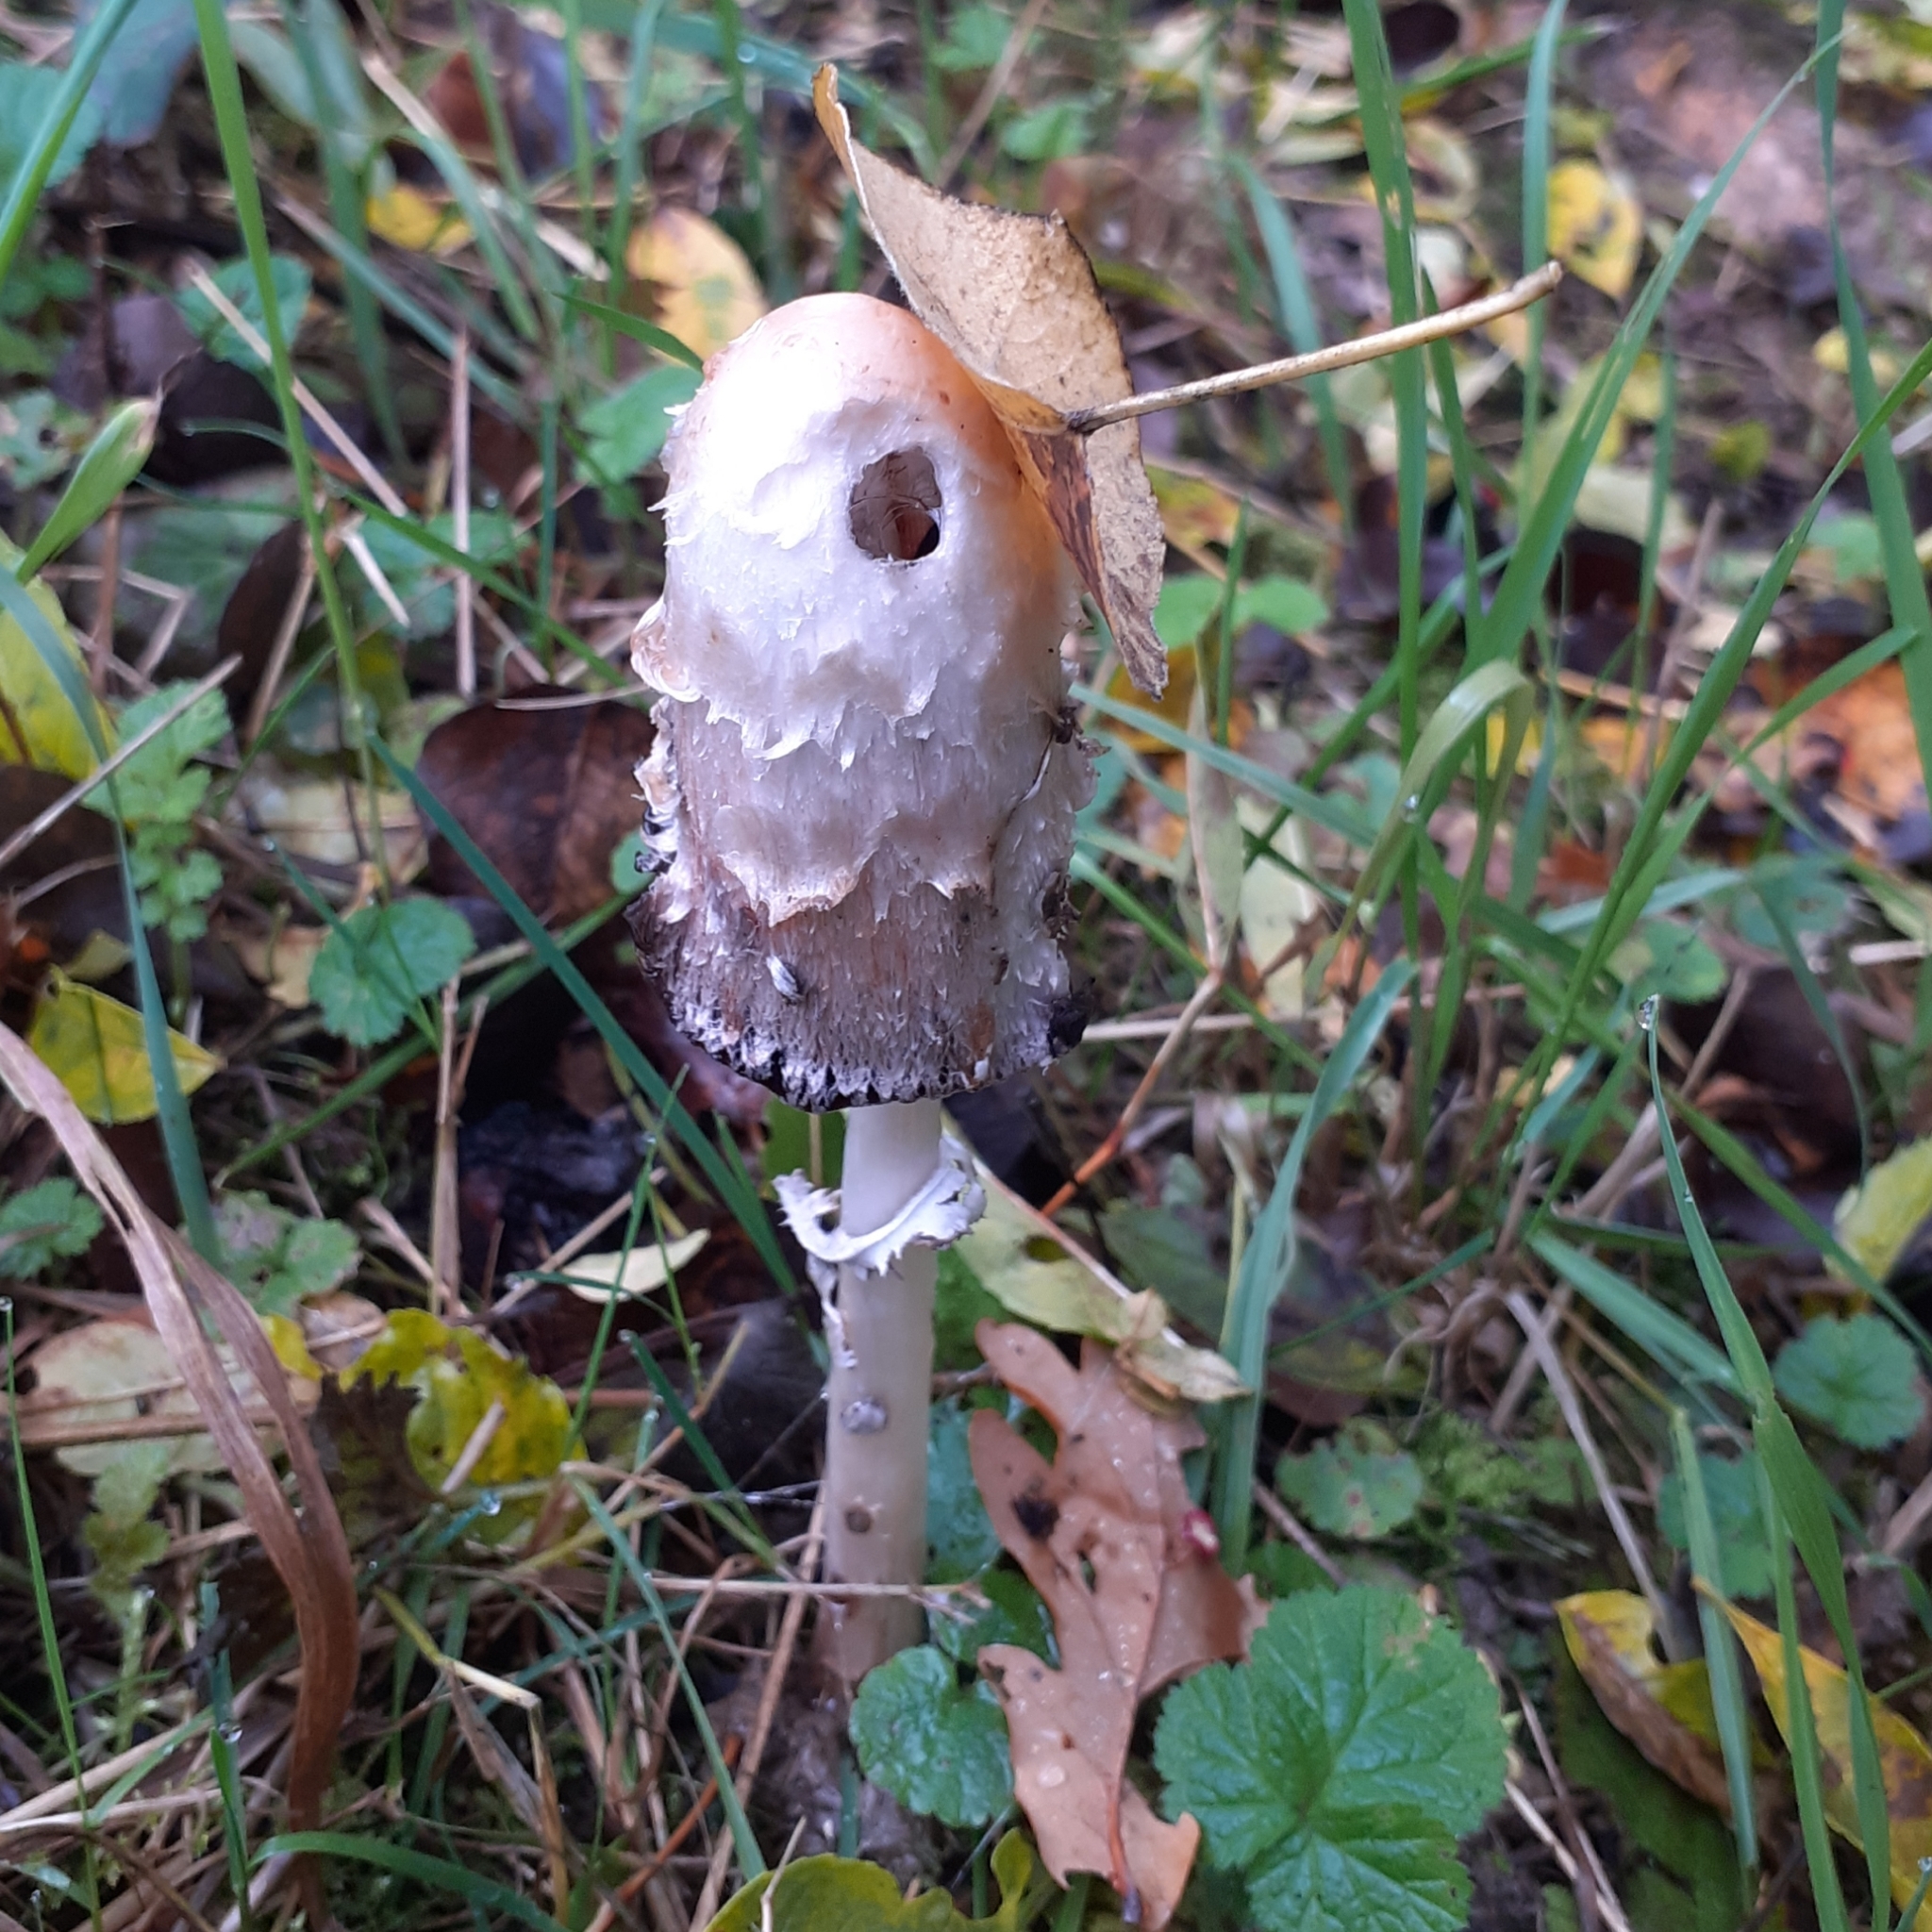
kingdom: Fungi
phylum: Basidiomycota
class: Agaricomycetes
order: Agaricales
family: Agaricaceae
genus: Coprinus
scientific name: Coprinus comatus
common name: Lawyer's wig
